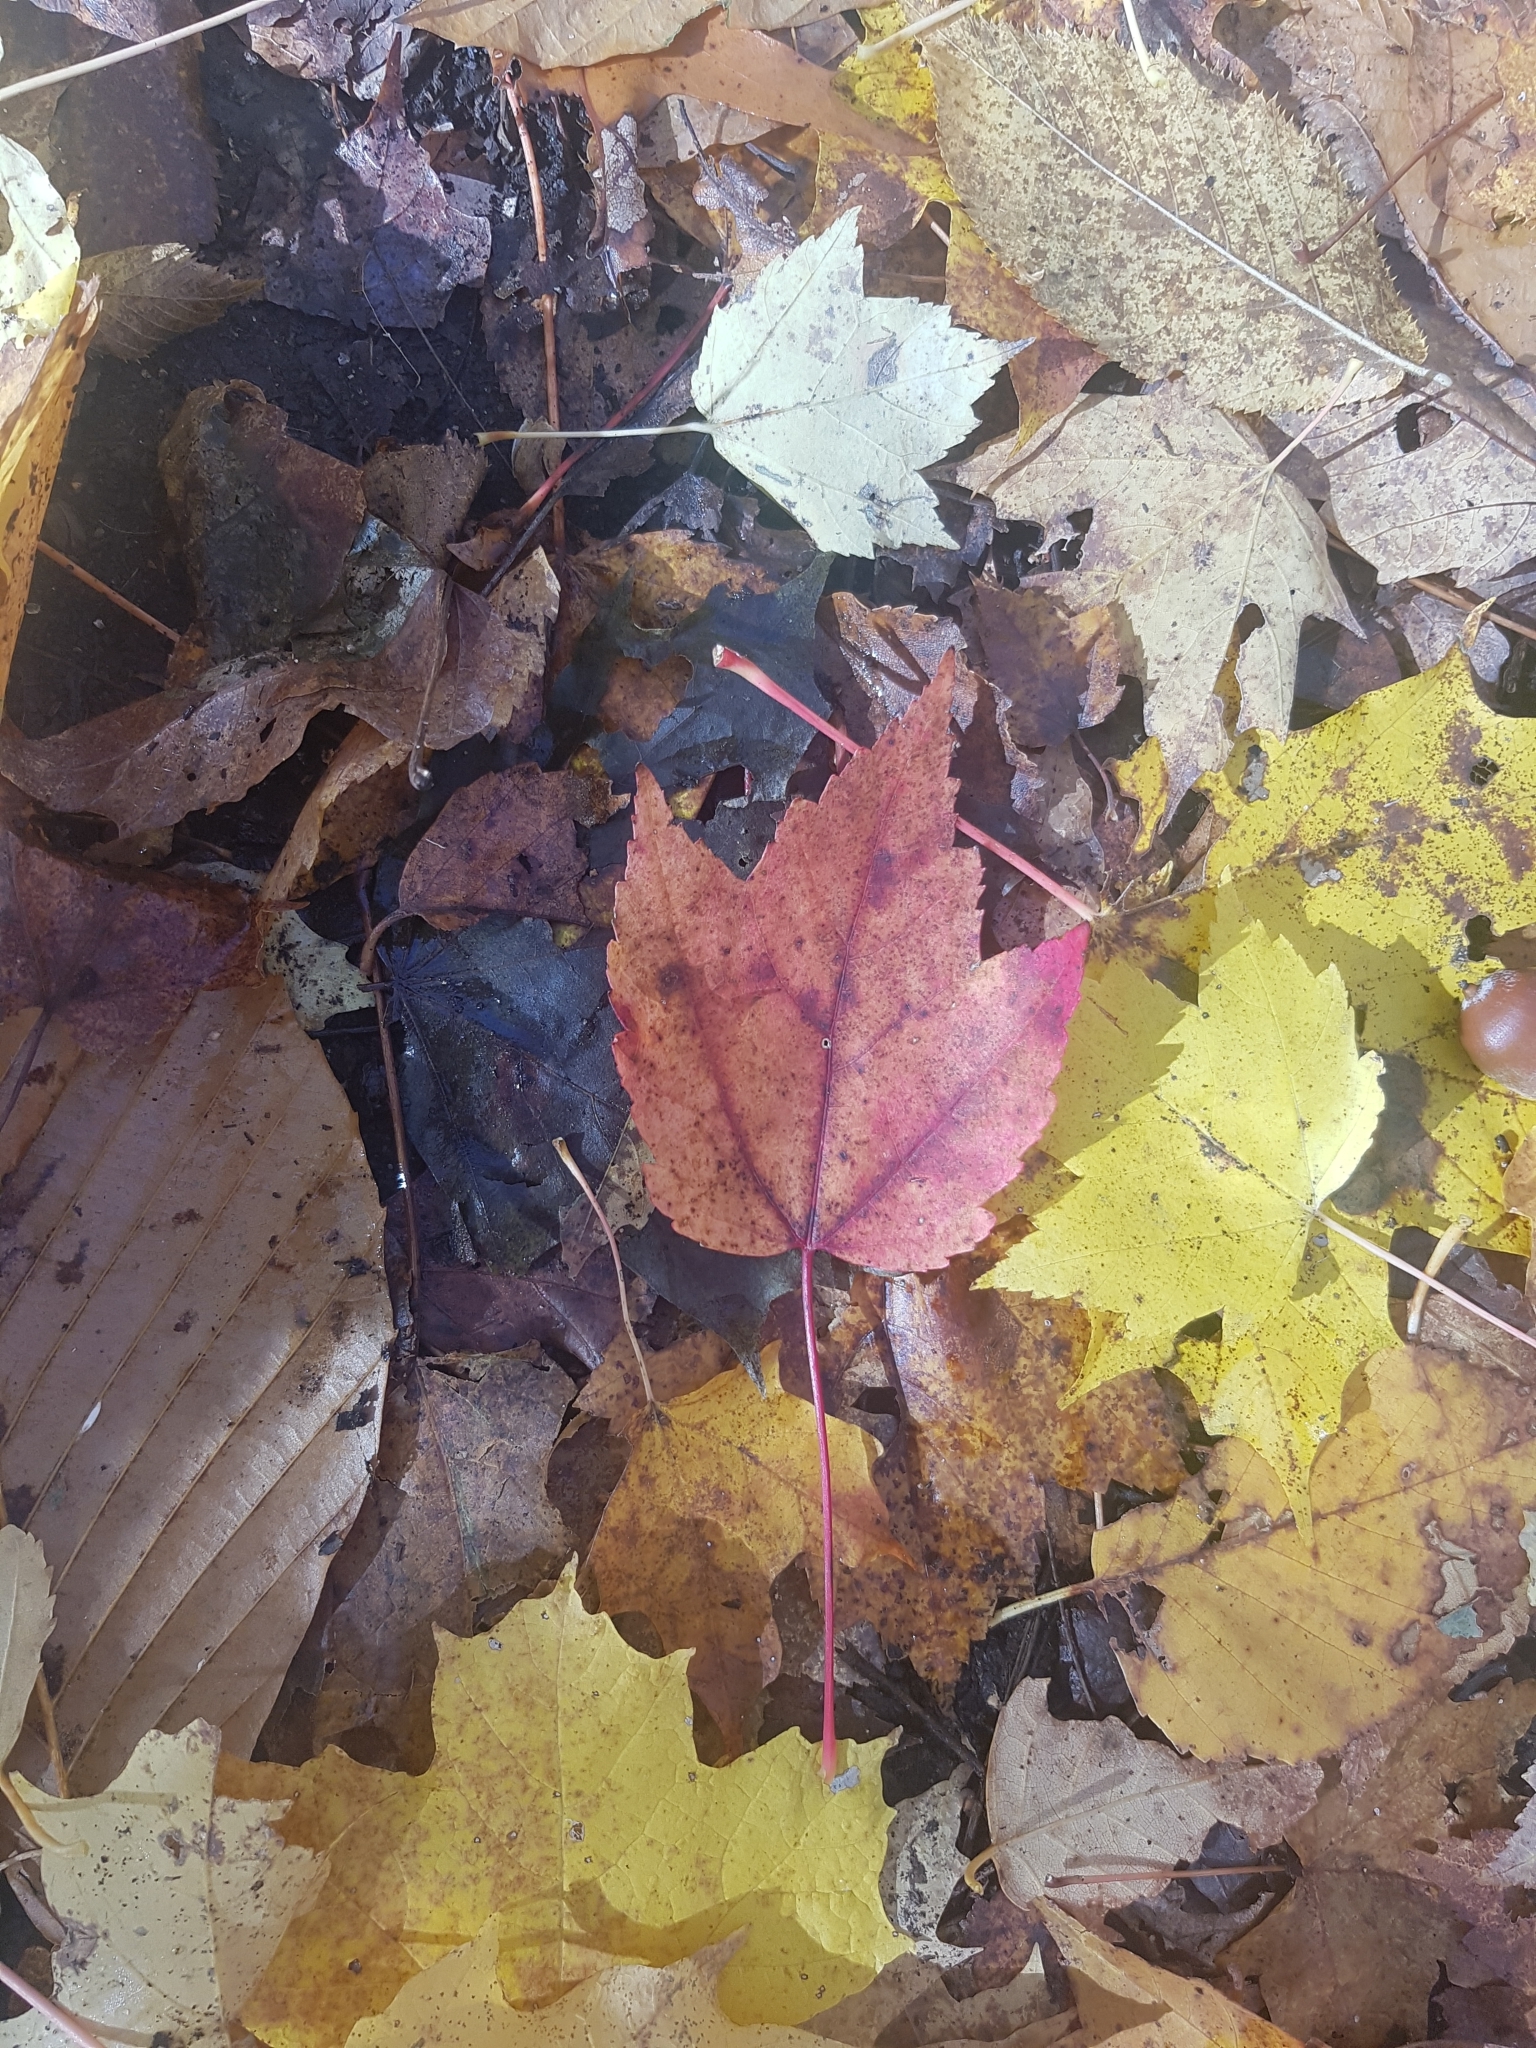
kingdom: Plantae
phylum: Tracheophyta
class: Magnoliopsida
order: Sapindales
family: Sapindaceae
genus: Acer
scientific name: Acer rubrum
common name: Red maple
